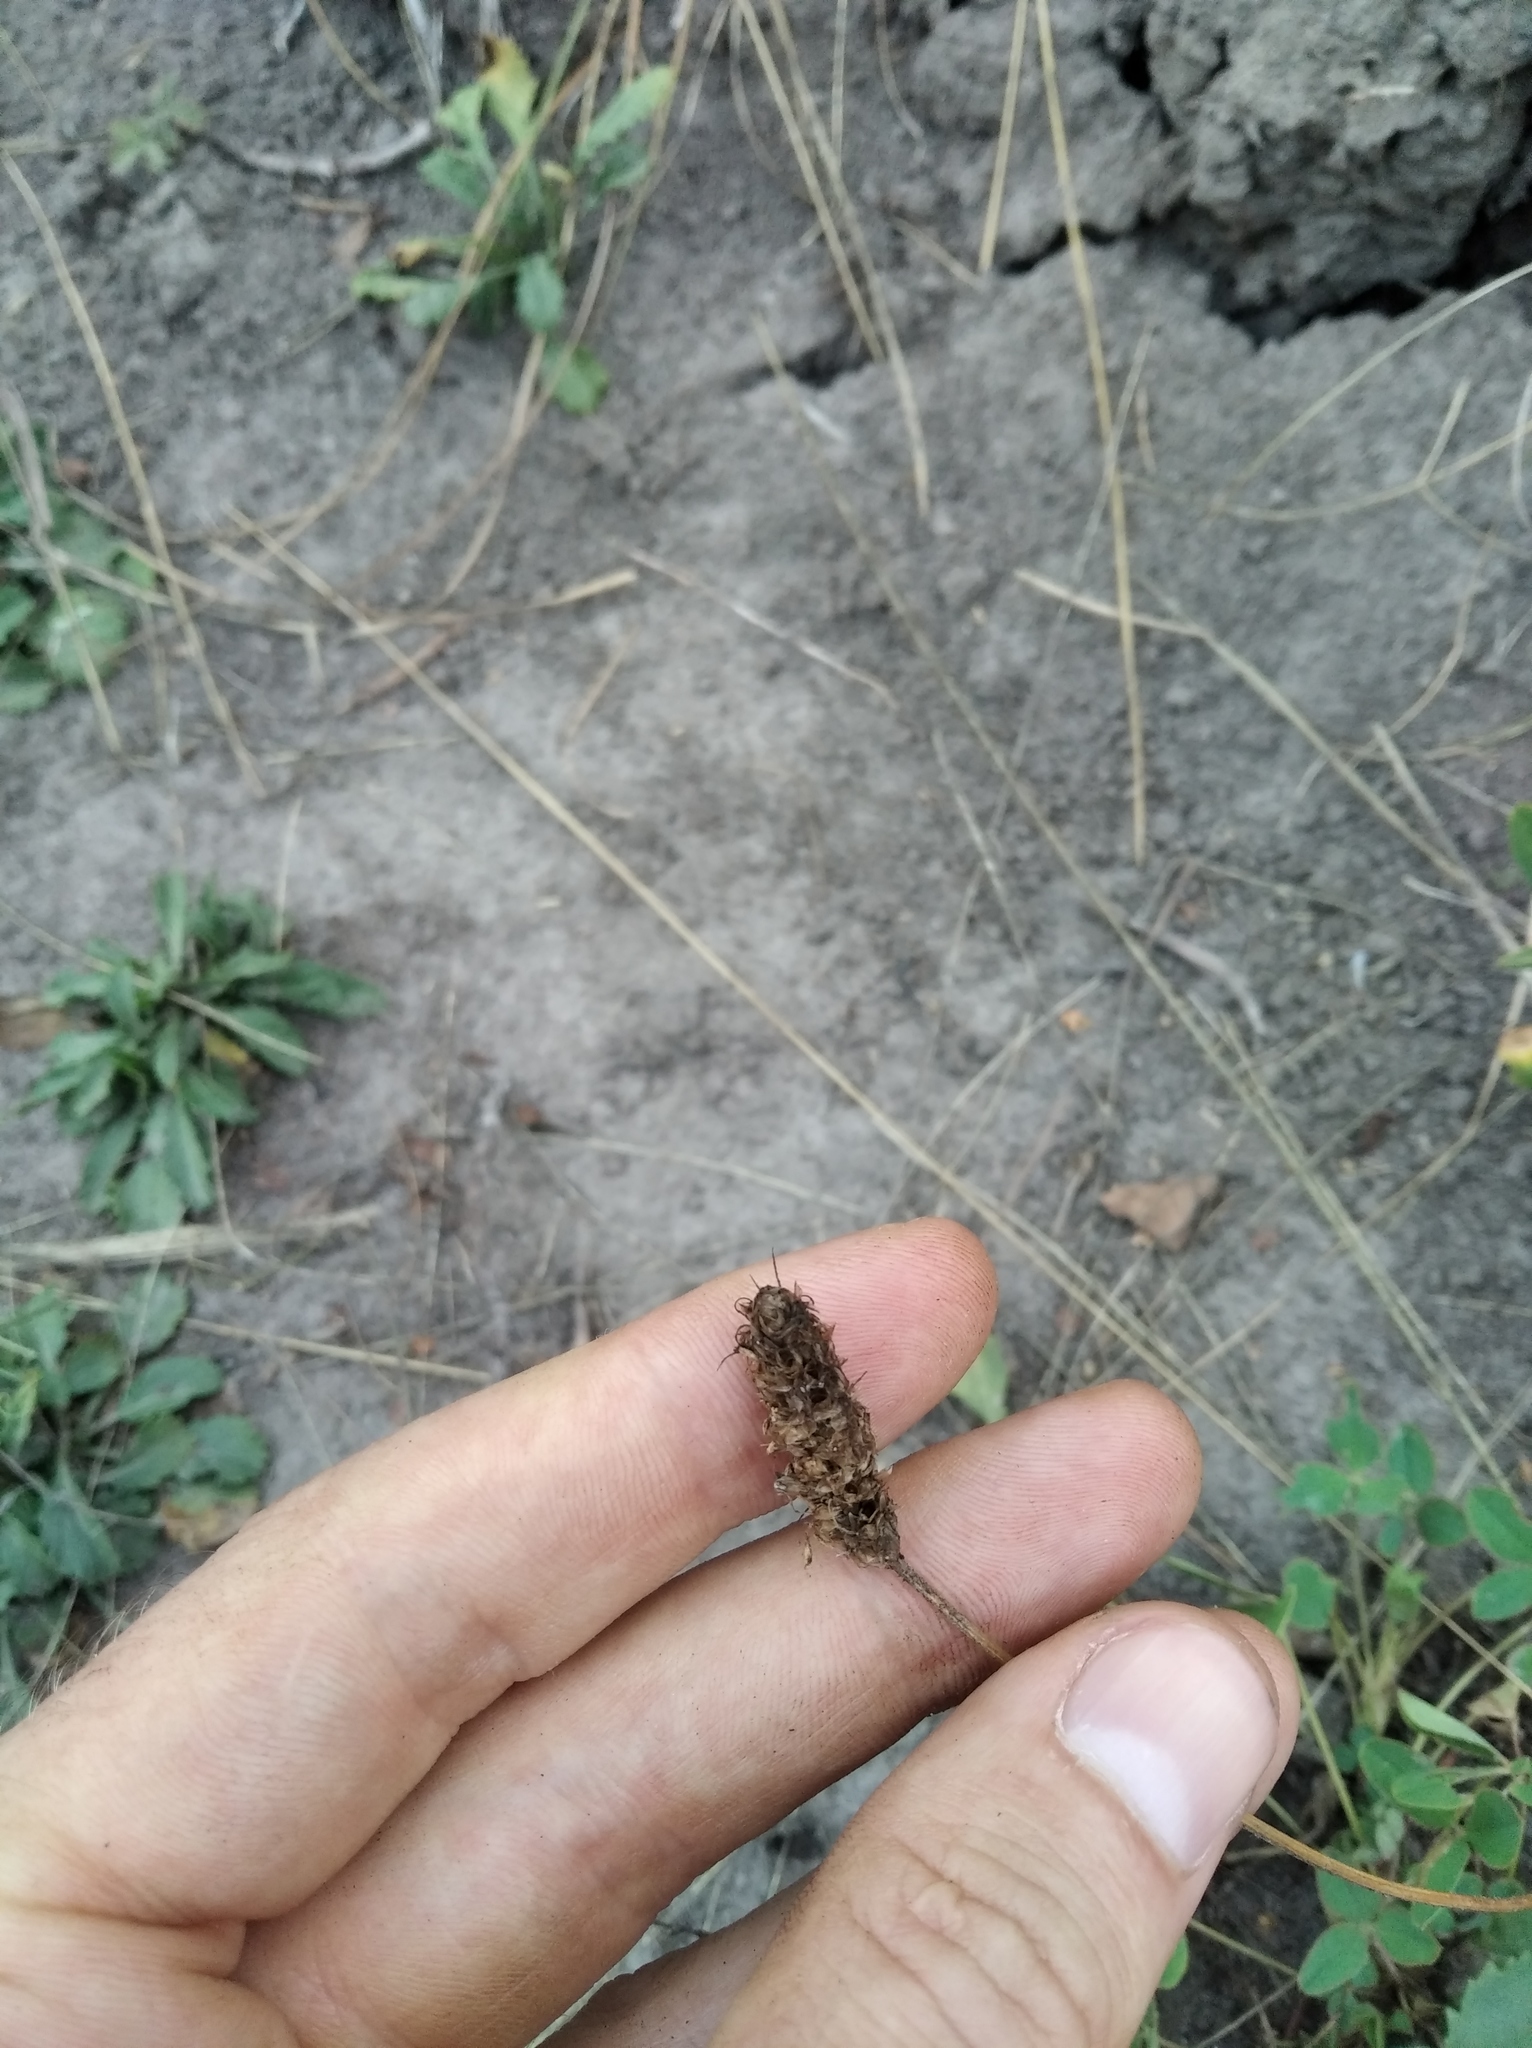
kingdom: Plantae
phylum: Tracheophyta
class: Magnoliopsida
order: Lamiales
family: Plantaginaceae
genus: Plantago
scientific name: Plantago lanceolata
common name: Ribwort plantain
